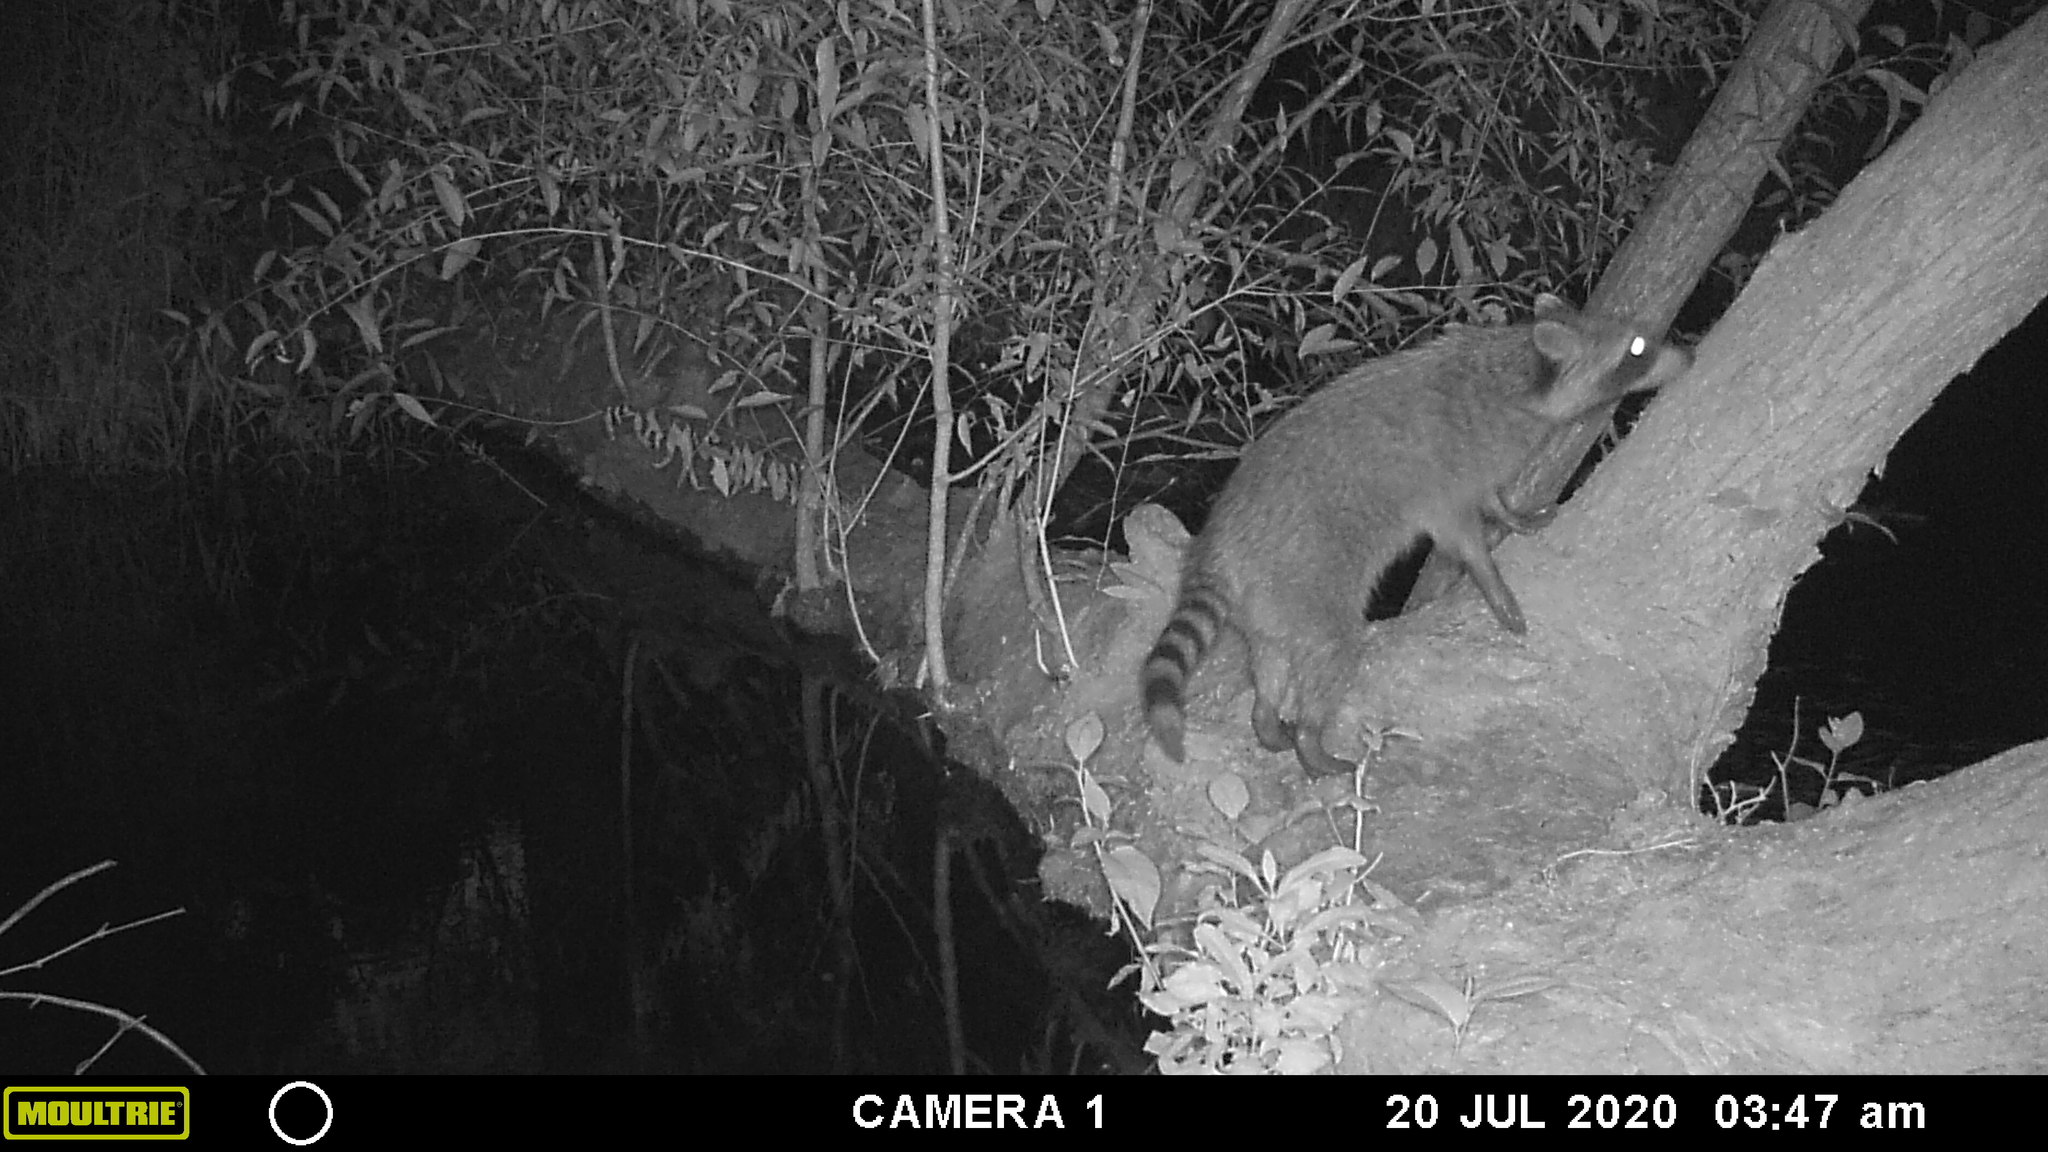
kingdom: Animalia
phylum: Chordata
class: Mammalia
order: Carnivora
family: Procyonidae
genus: Procyon
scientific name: Procyon lotor
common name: Raccoon
